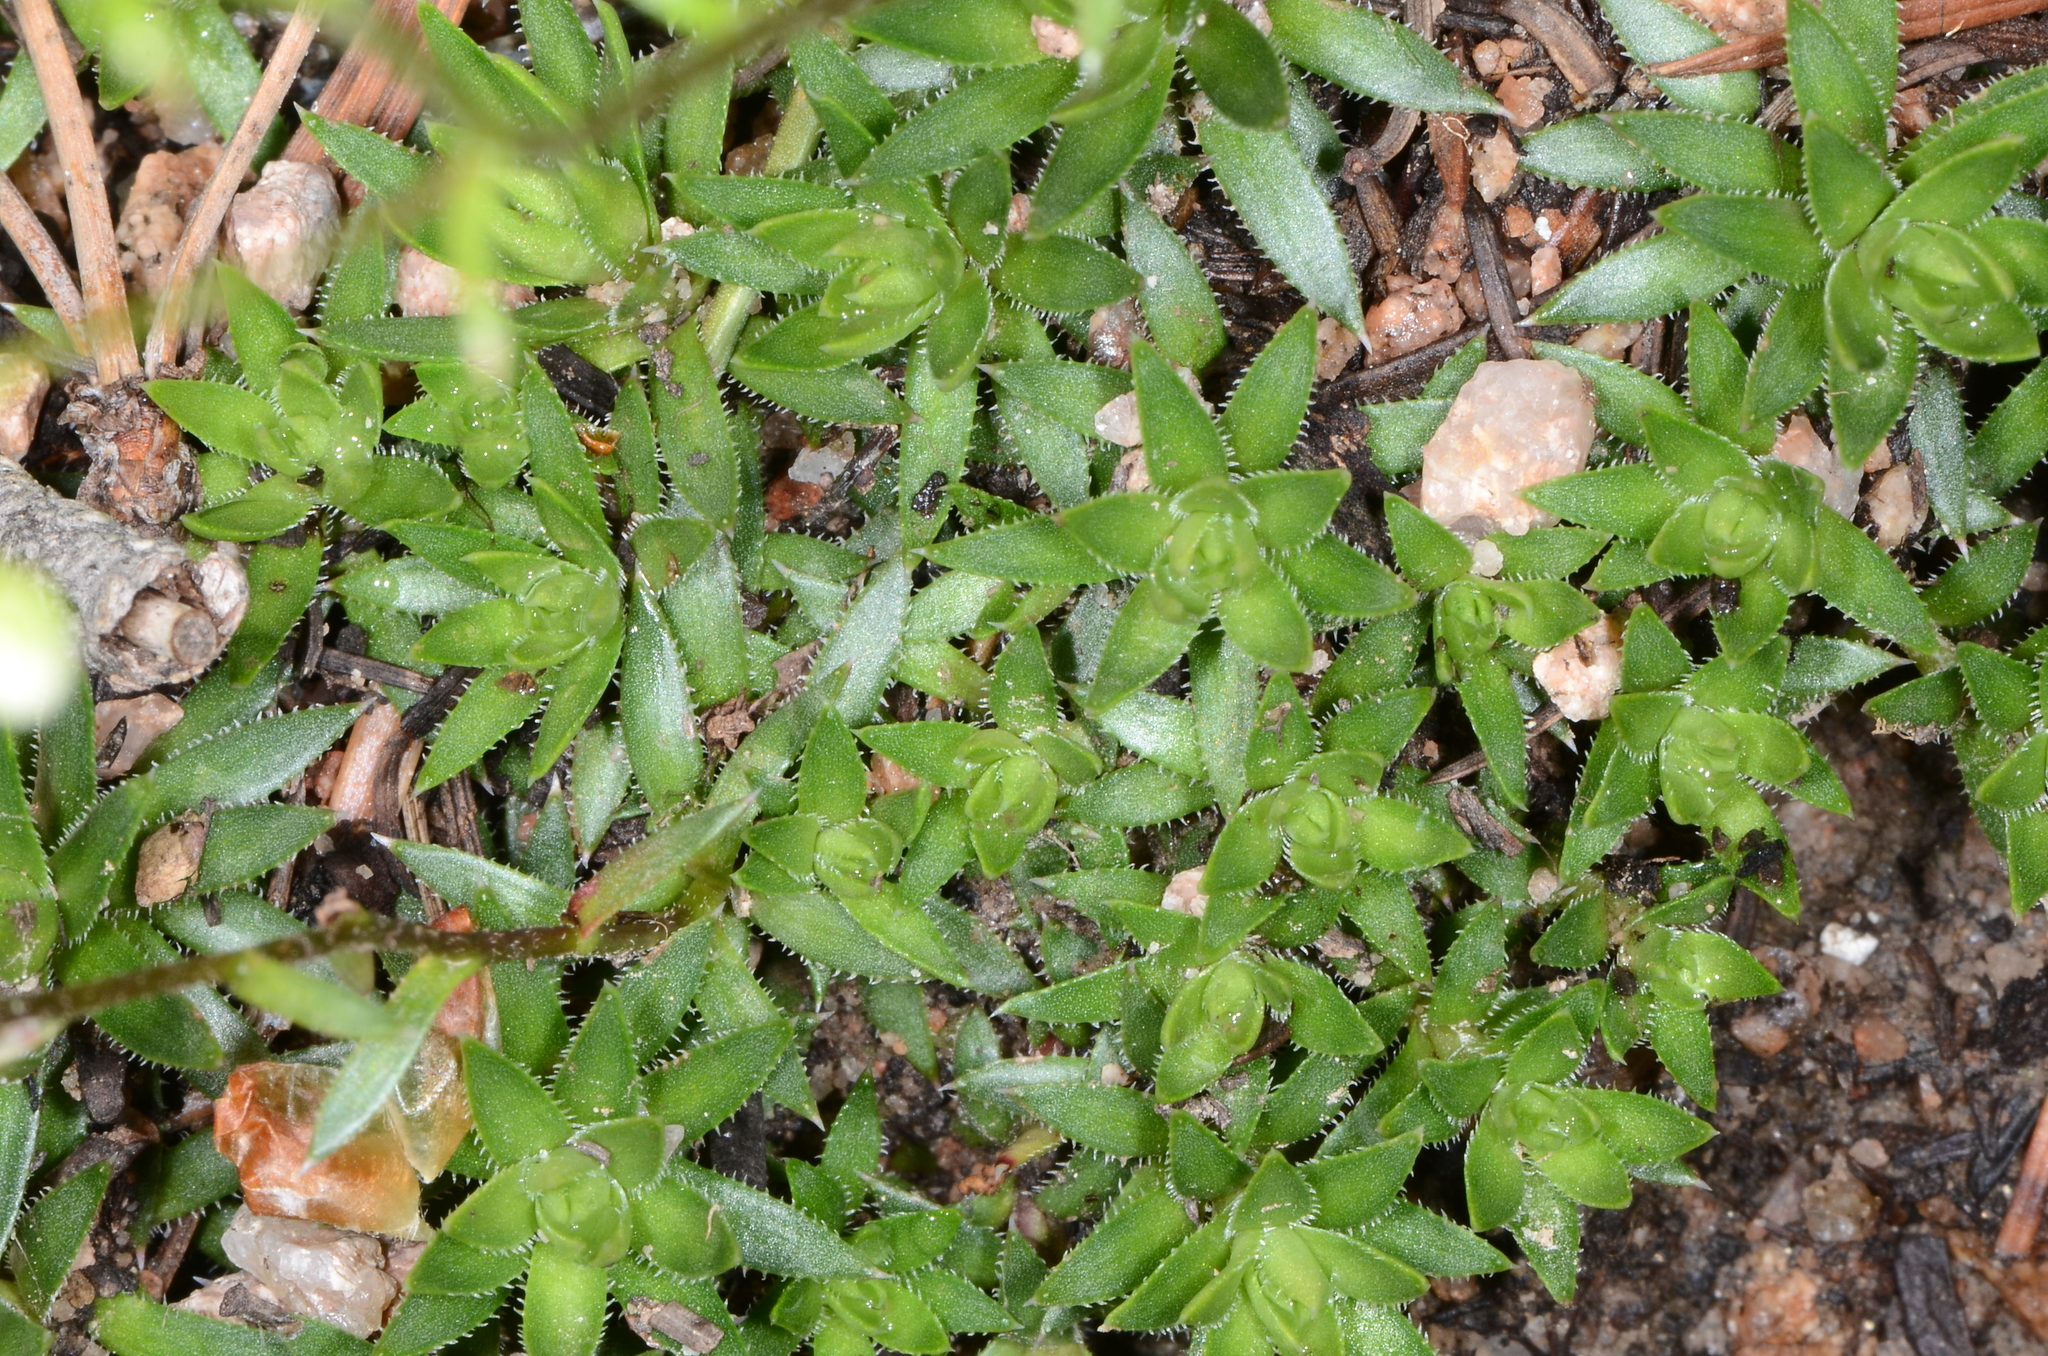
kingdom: Plantae
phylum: Tracheophyta
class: Magnoliopsida
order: Saxifragales
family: Saxifragaceae
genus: Saxifraga
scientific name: Saxifraga bronchialis
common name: Matted saxifrage
